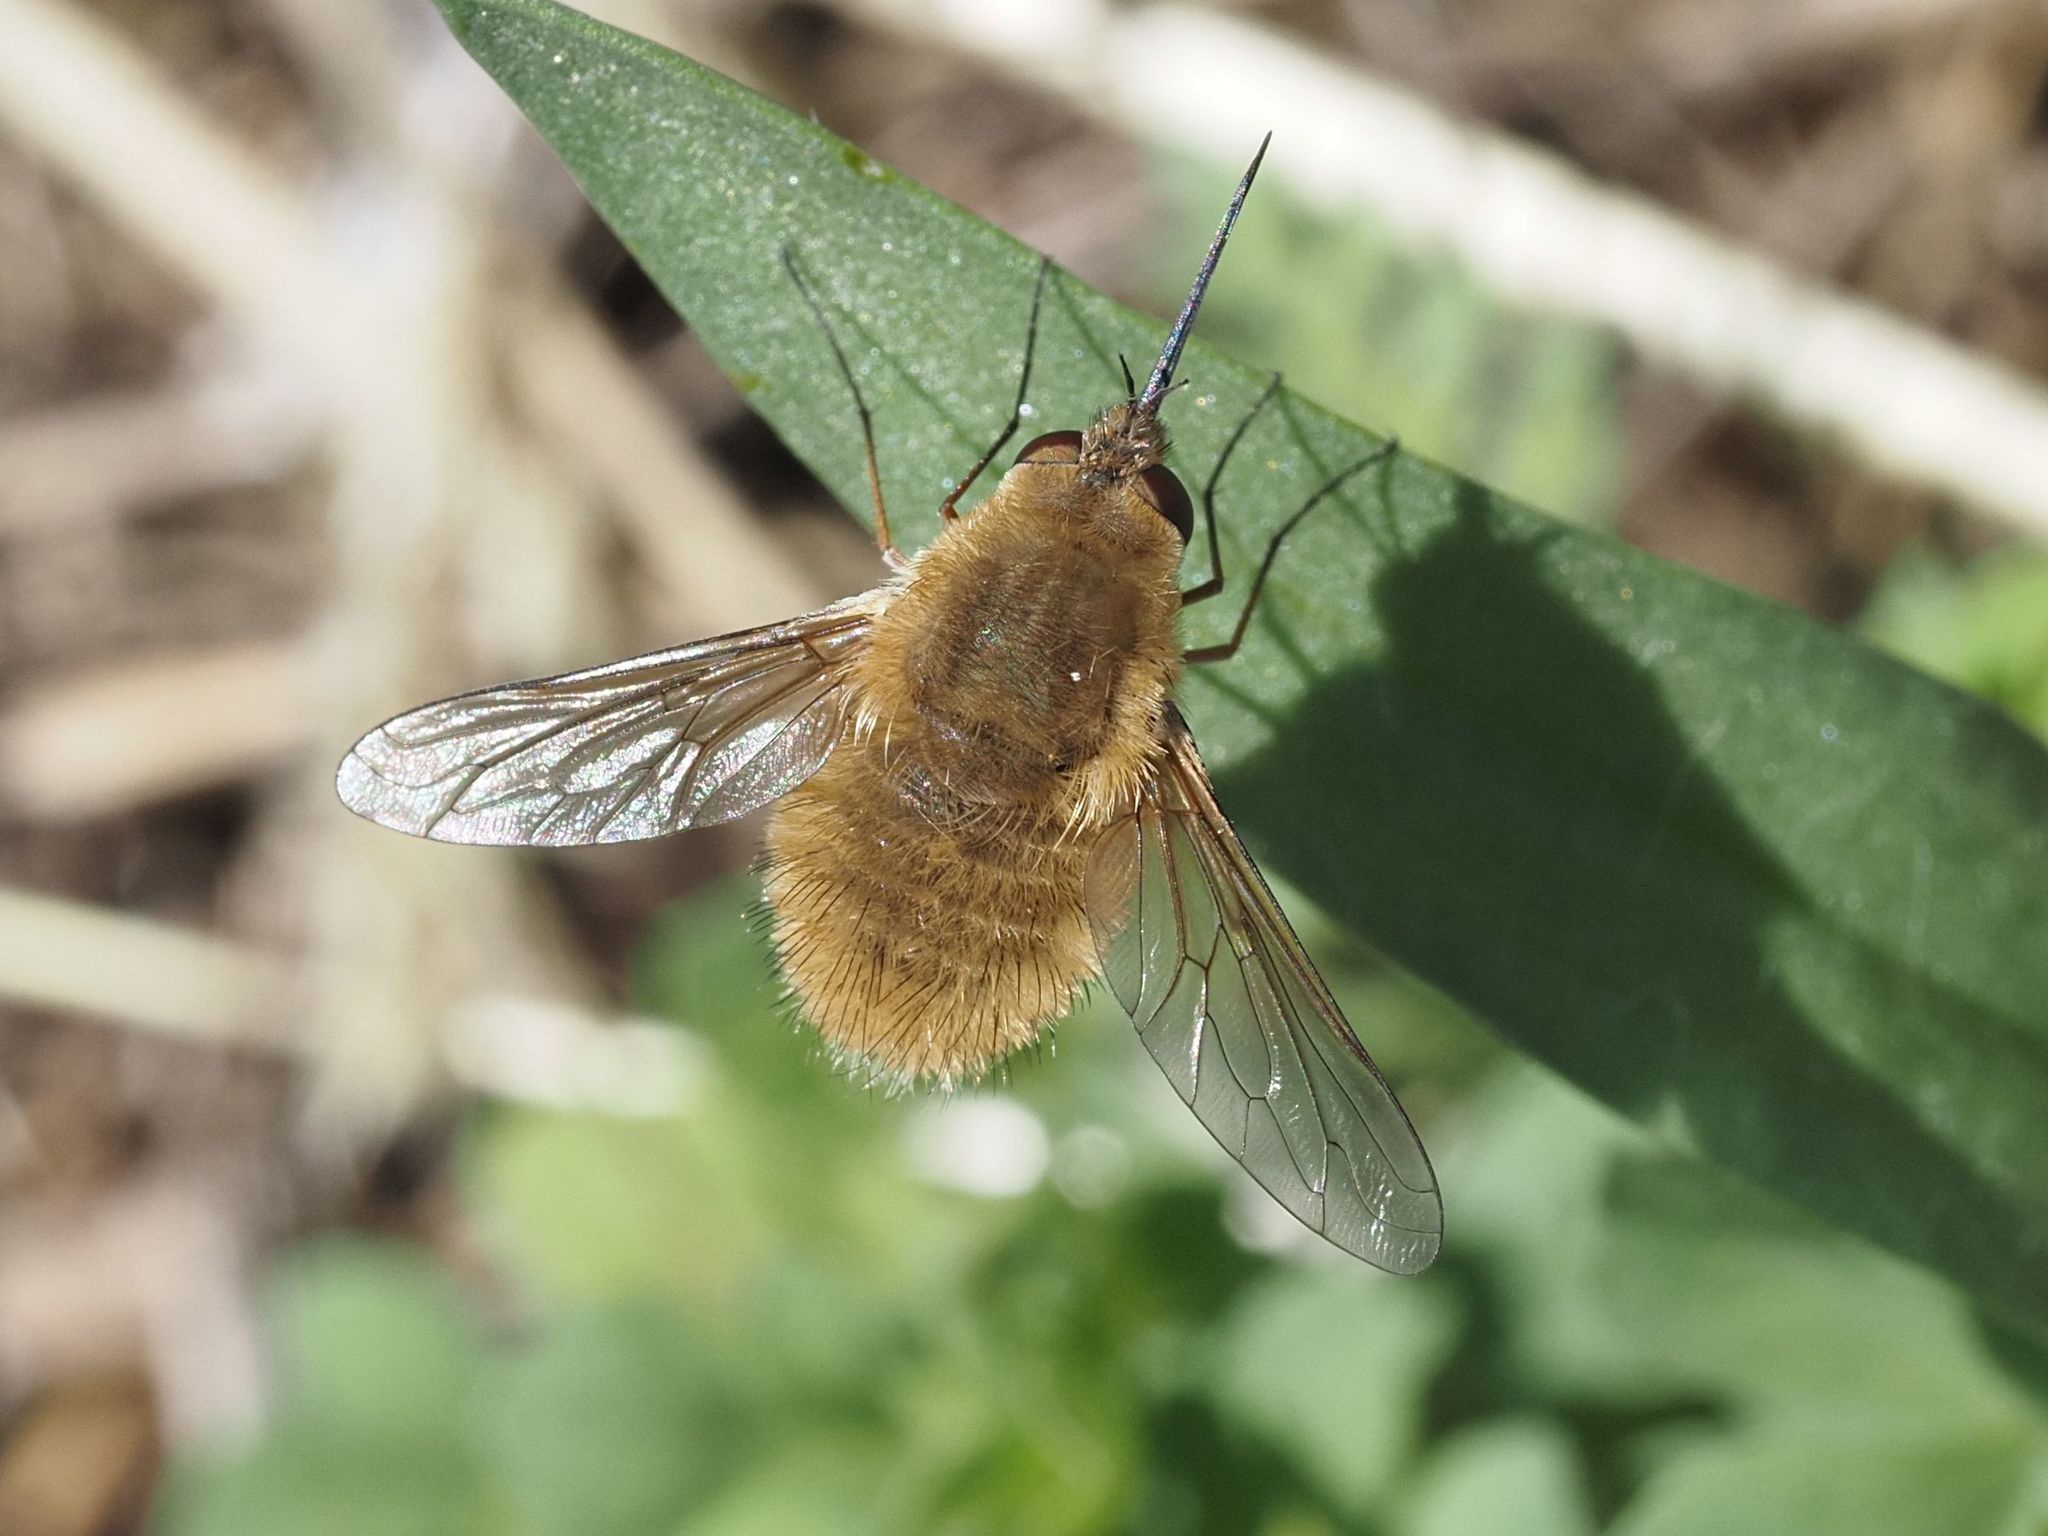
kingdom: Animalia
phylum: Arthropoda
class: Insecta
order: Diptera
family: Bombyliidae
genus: Systoechus
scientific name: Systoechus ctenopterus
